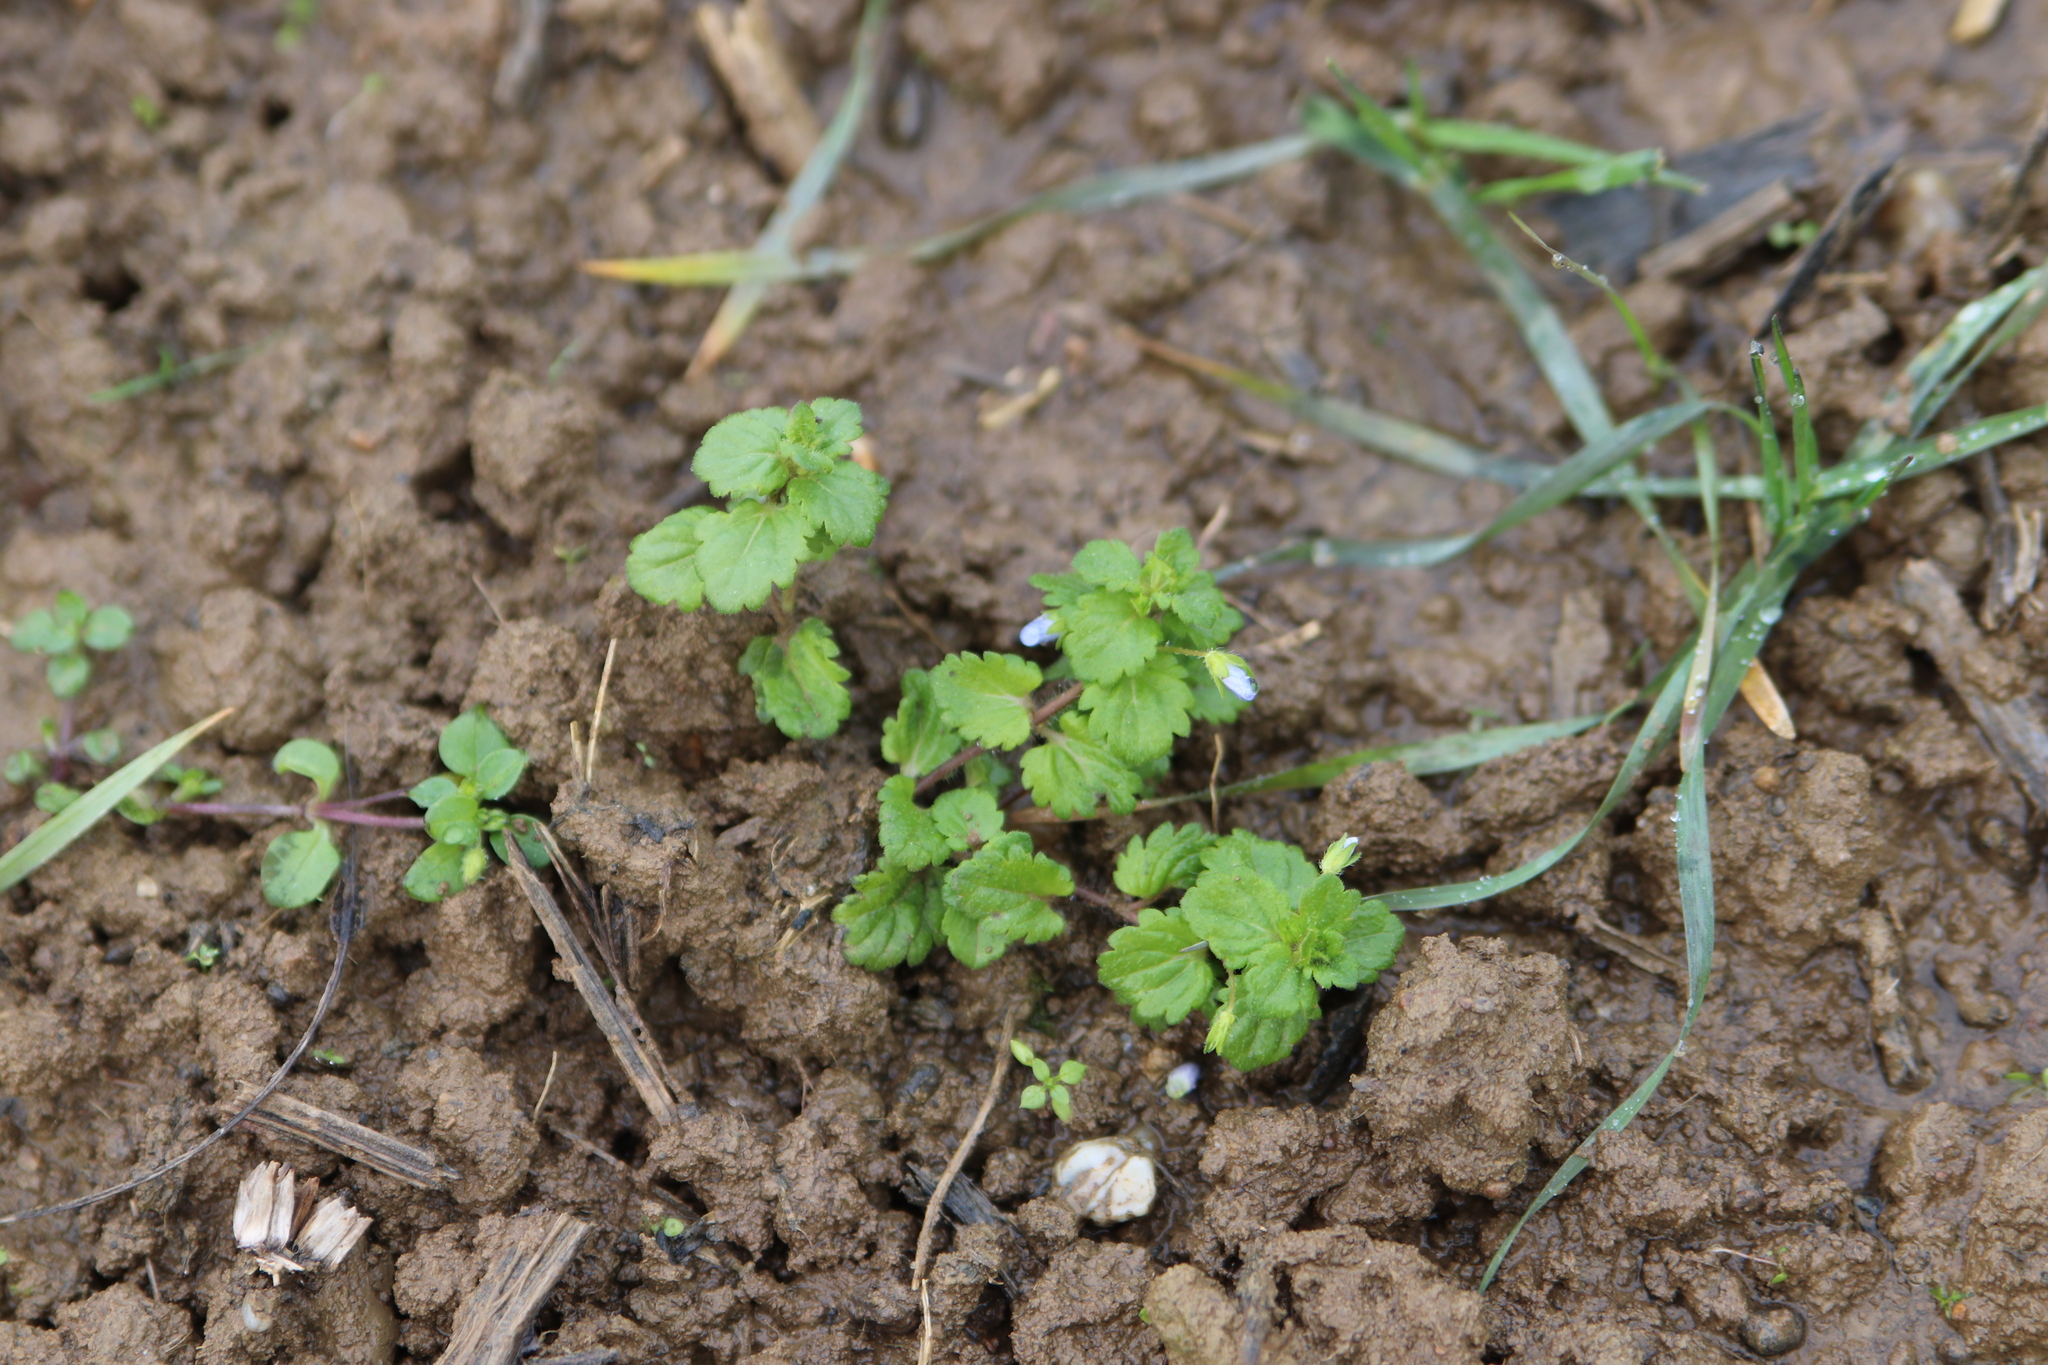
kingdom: Plantae
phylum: Tracheophyta
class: Magnoliopsida
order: Lamiales
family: Plantaginaceae
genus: Veronica
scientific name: Veronica persica
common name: Common field-speedwell
